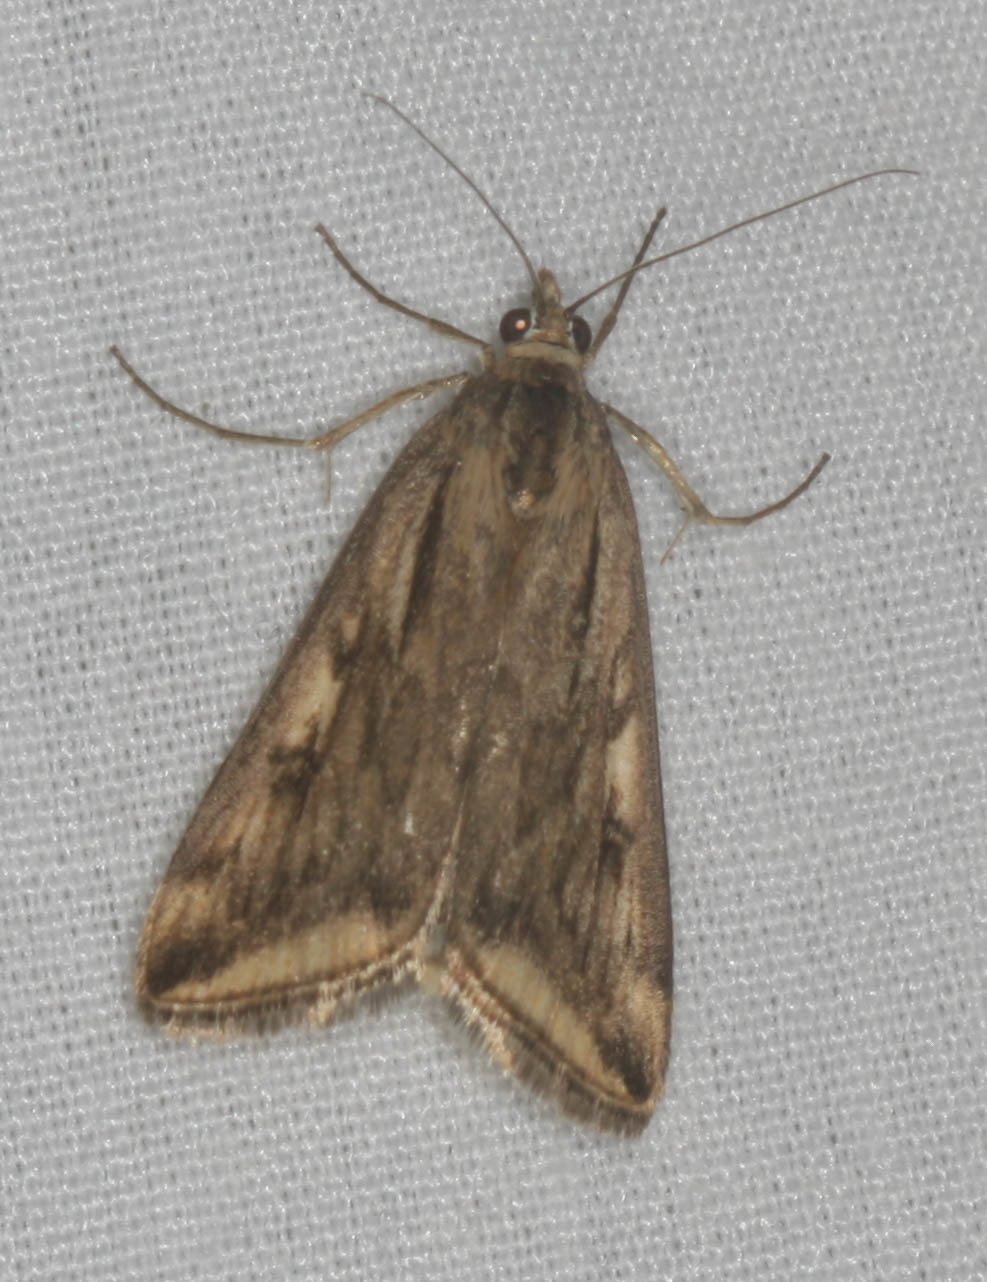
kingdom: Animalia
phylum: Arthropoda
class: Insecta
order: Lepidoptera
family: Crambidae
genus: Loxostege
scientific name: Loxostege cereralis
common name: Alfalfa webworm moth
